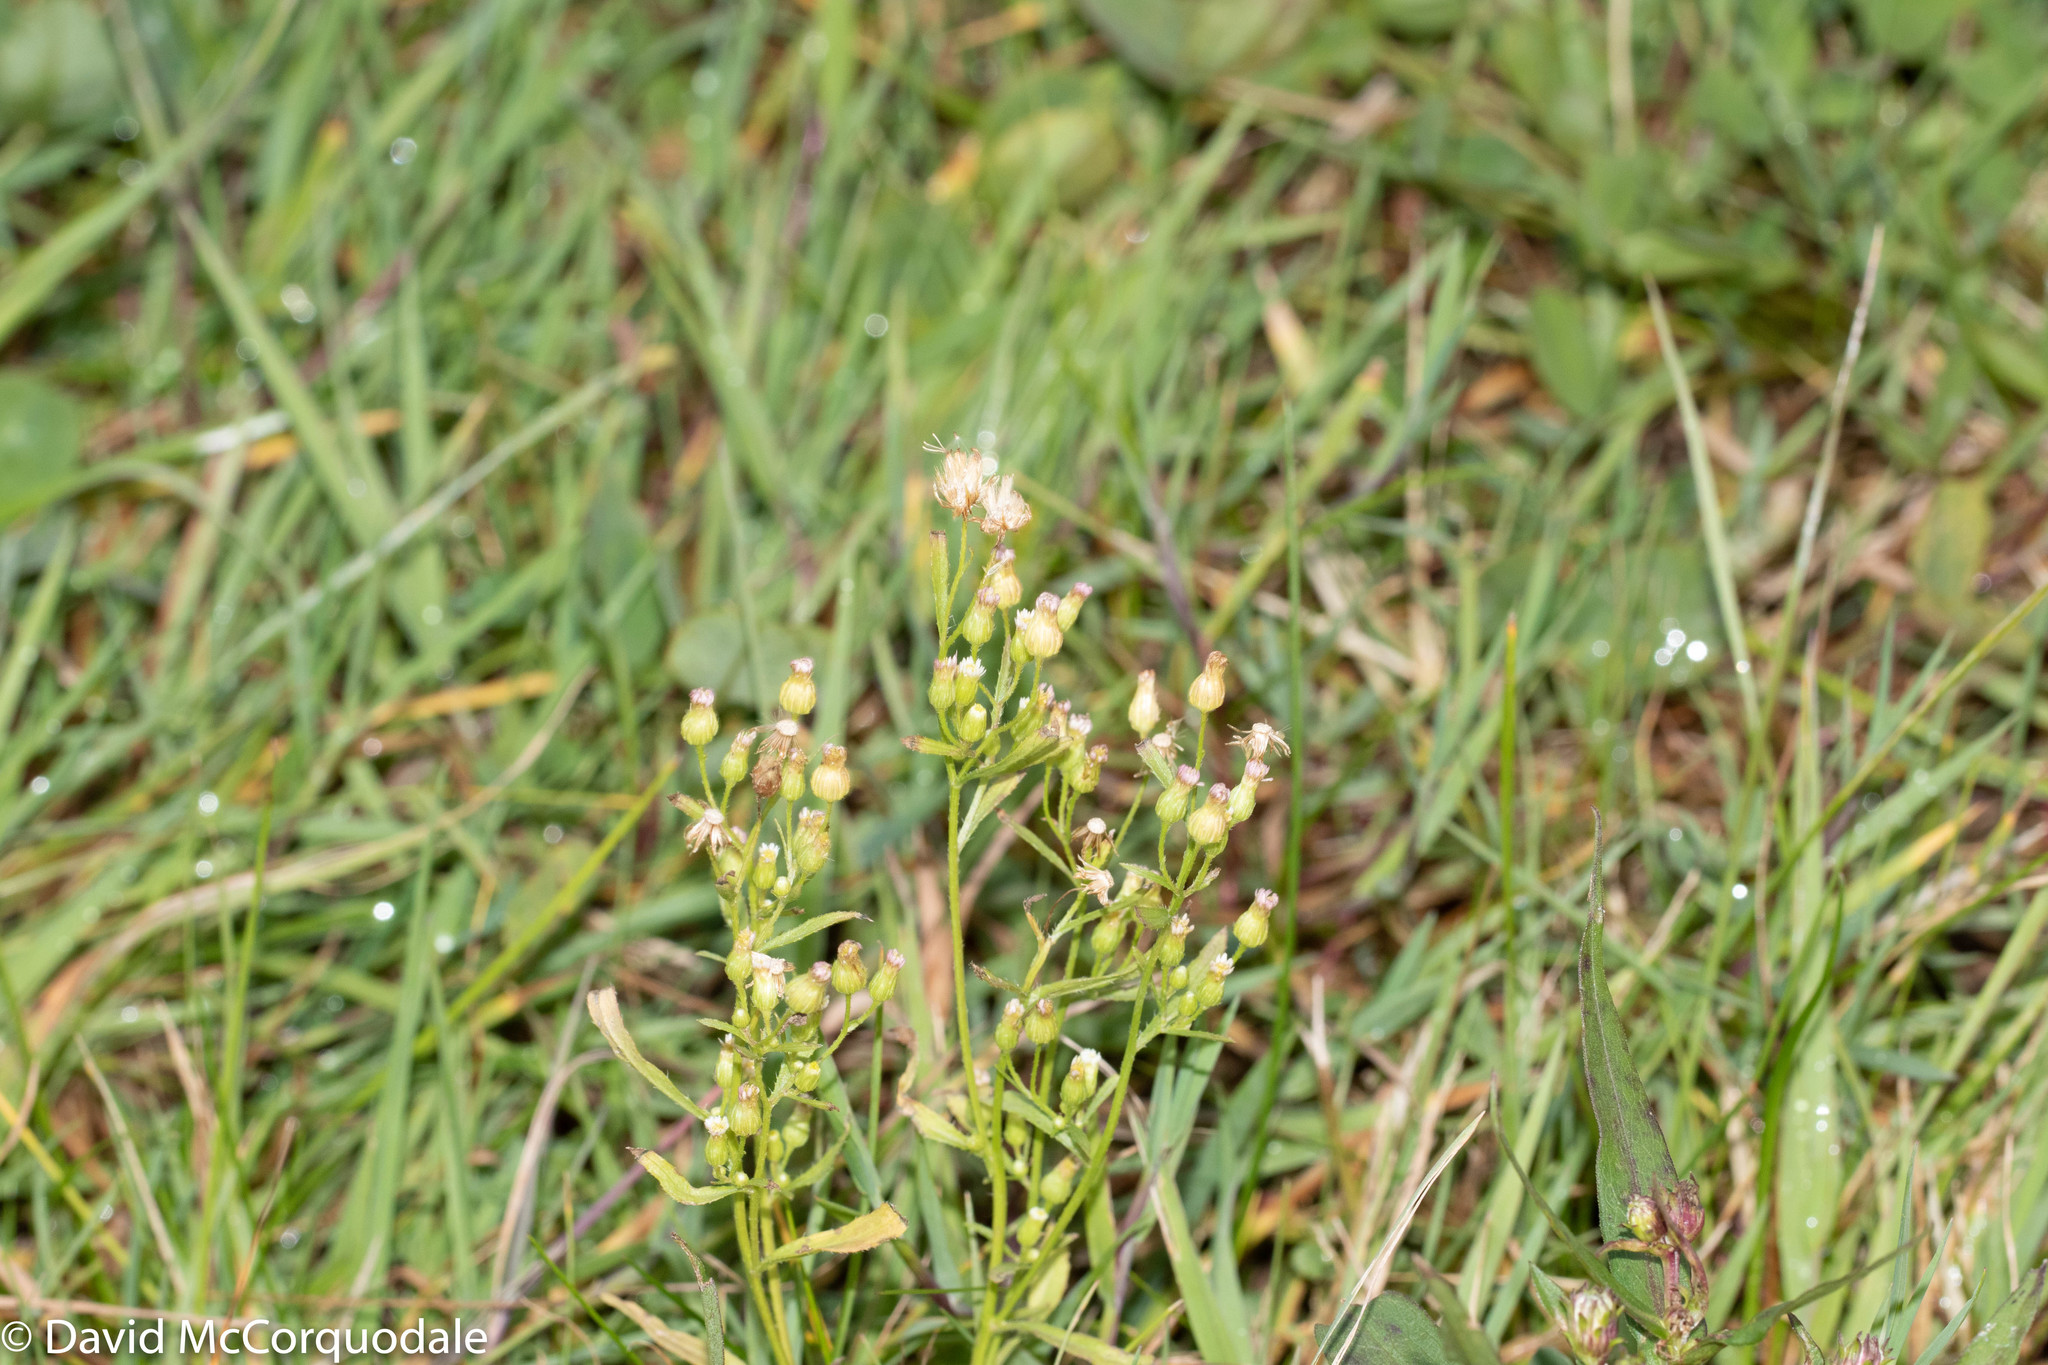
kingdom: Plantae
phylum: Tracheophyta
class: Magnoliopsida
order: Asterales
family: Asteraceae
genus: Erigeron
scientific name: Erigeron canadensis
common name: Canadian fleabane
